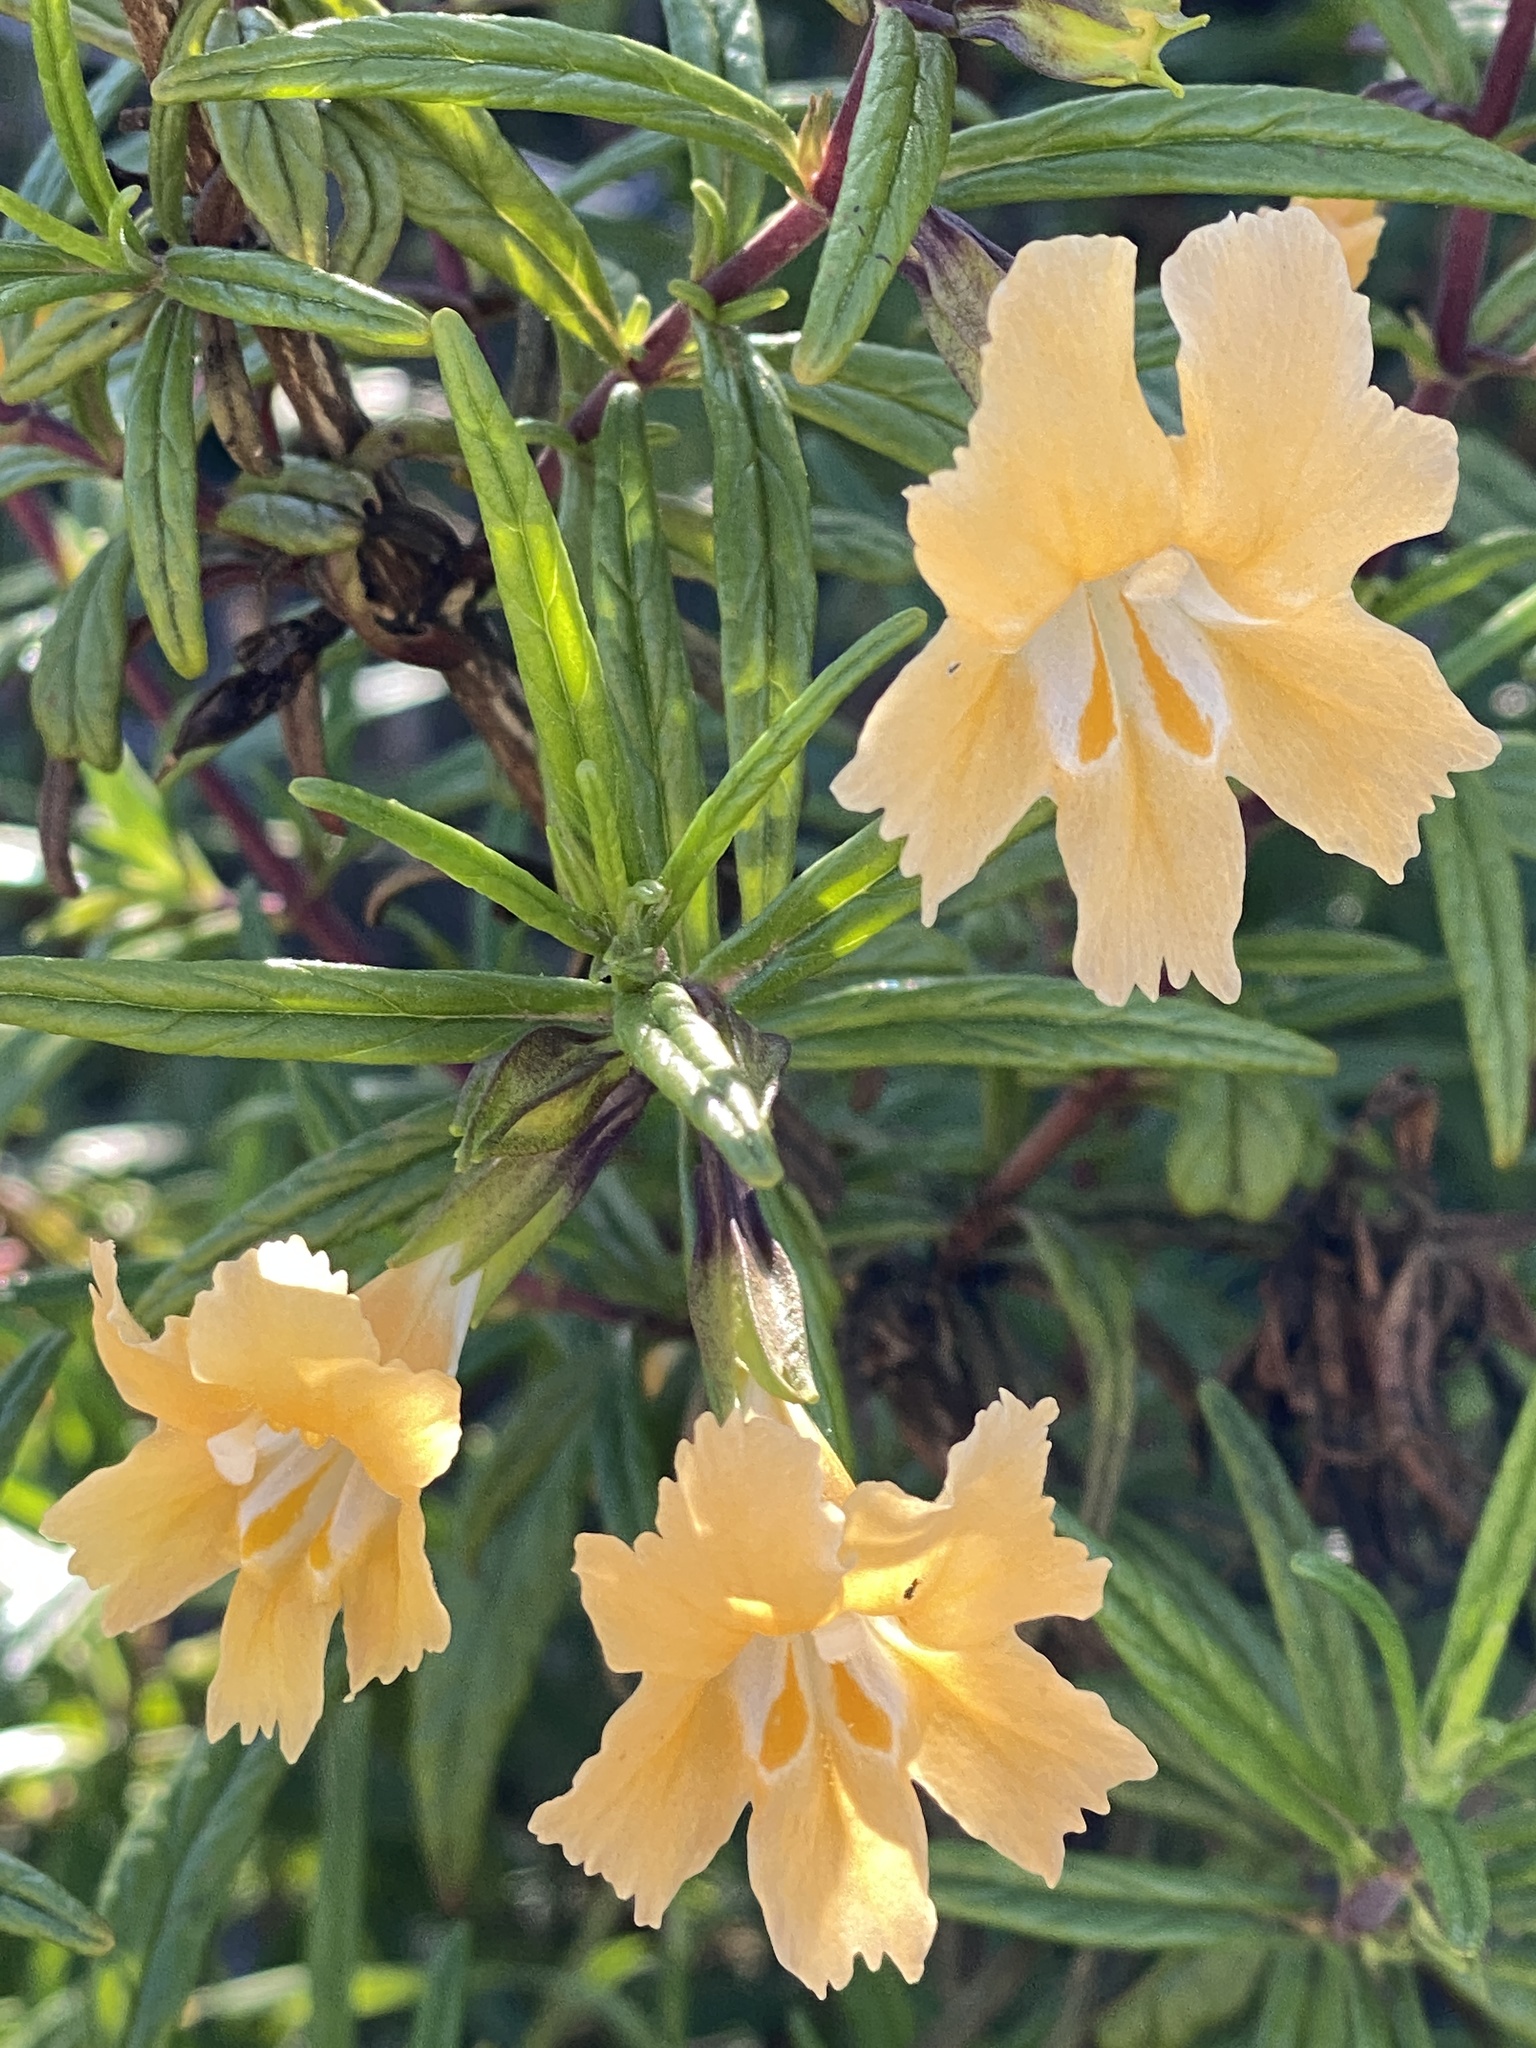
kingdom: Plantae
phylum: Tracheophyta
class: Magnoliopsida
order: Lamiales
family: Phrymaceae
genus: Diplacus
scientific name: Diplacus australis
